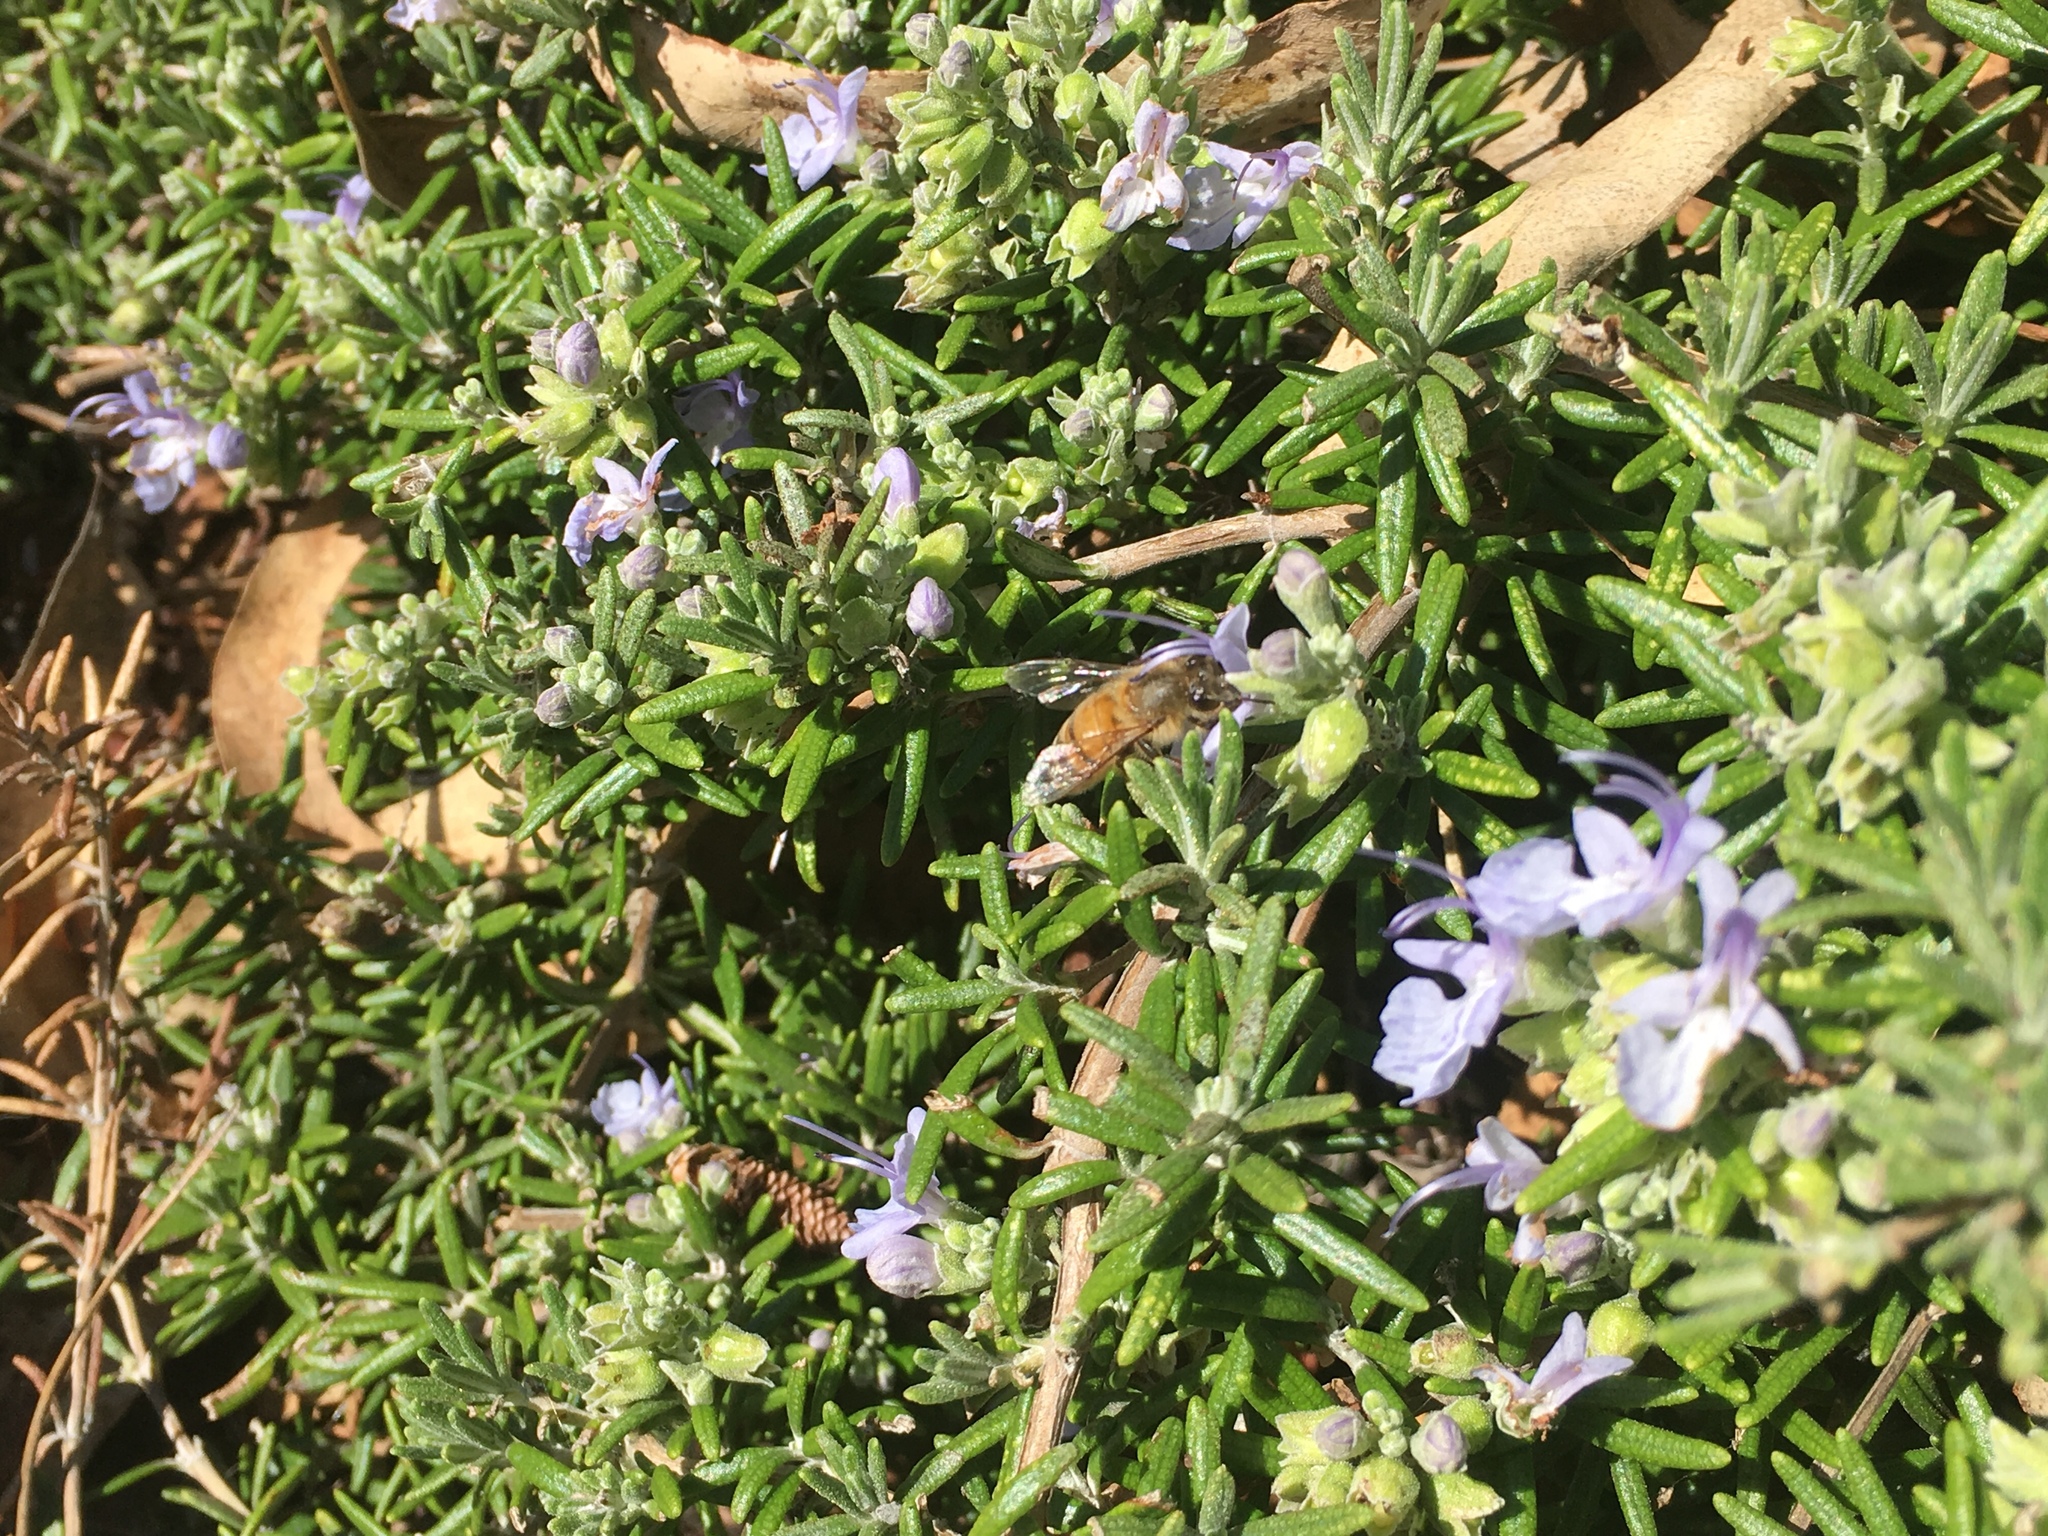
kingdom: Animalia
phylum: Arthropoda
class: Insecta
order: Hymenoptera
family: Apidae
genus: Apis
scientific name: Apis mellifera
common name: Honey bee
